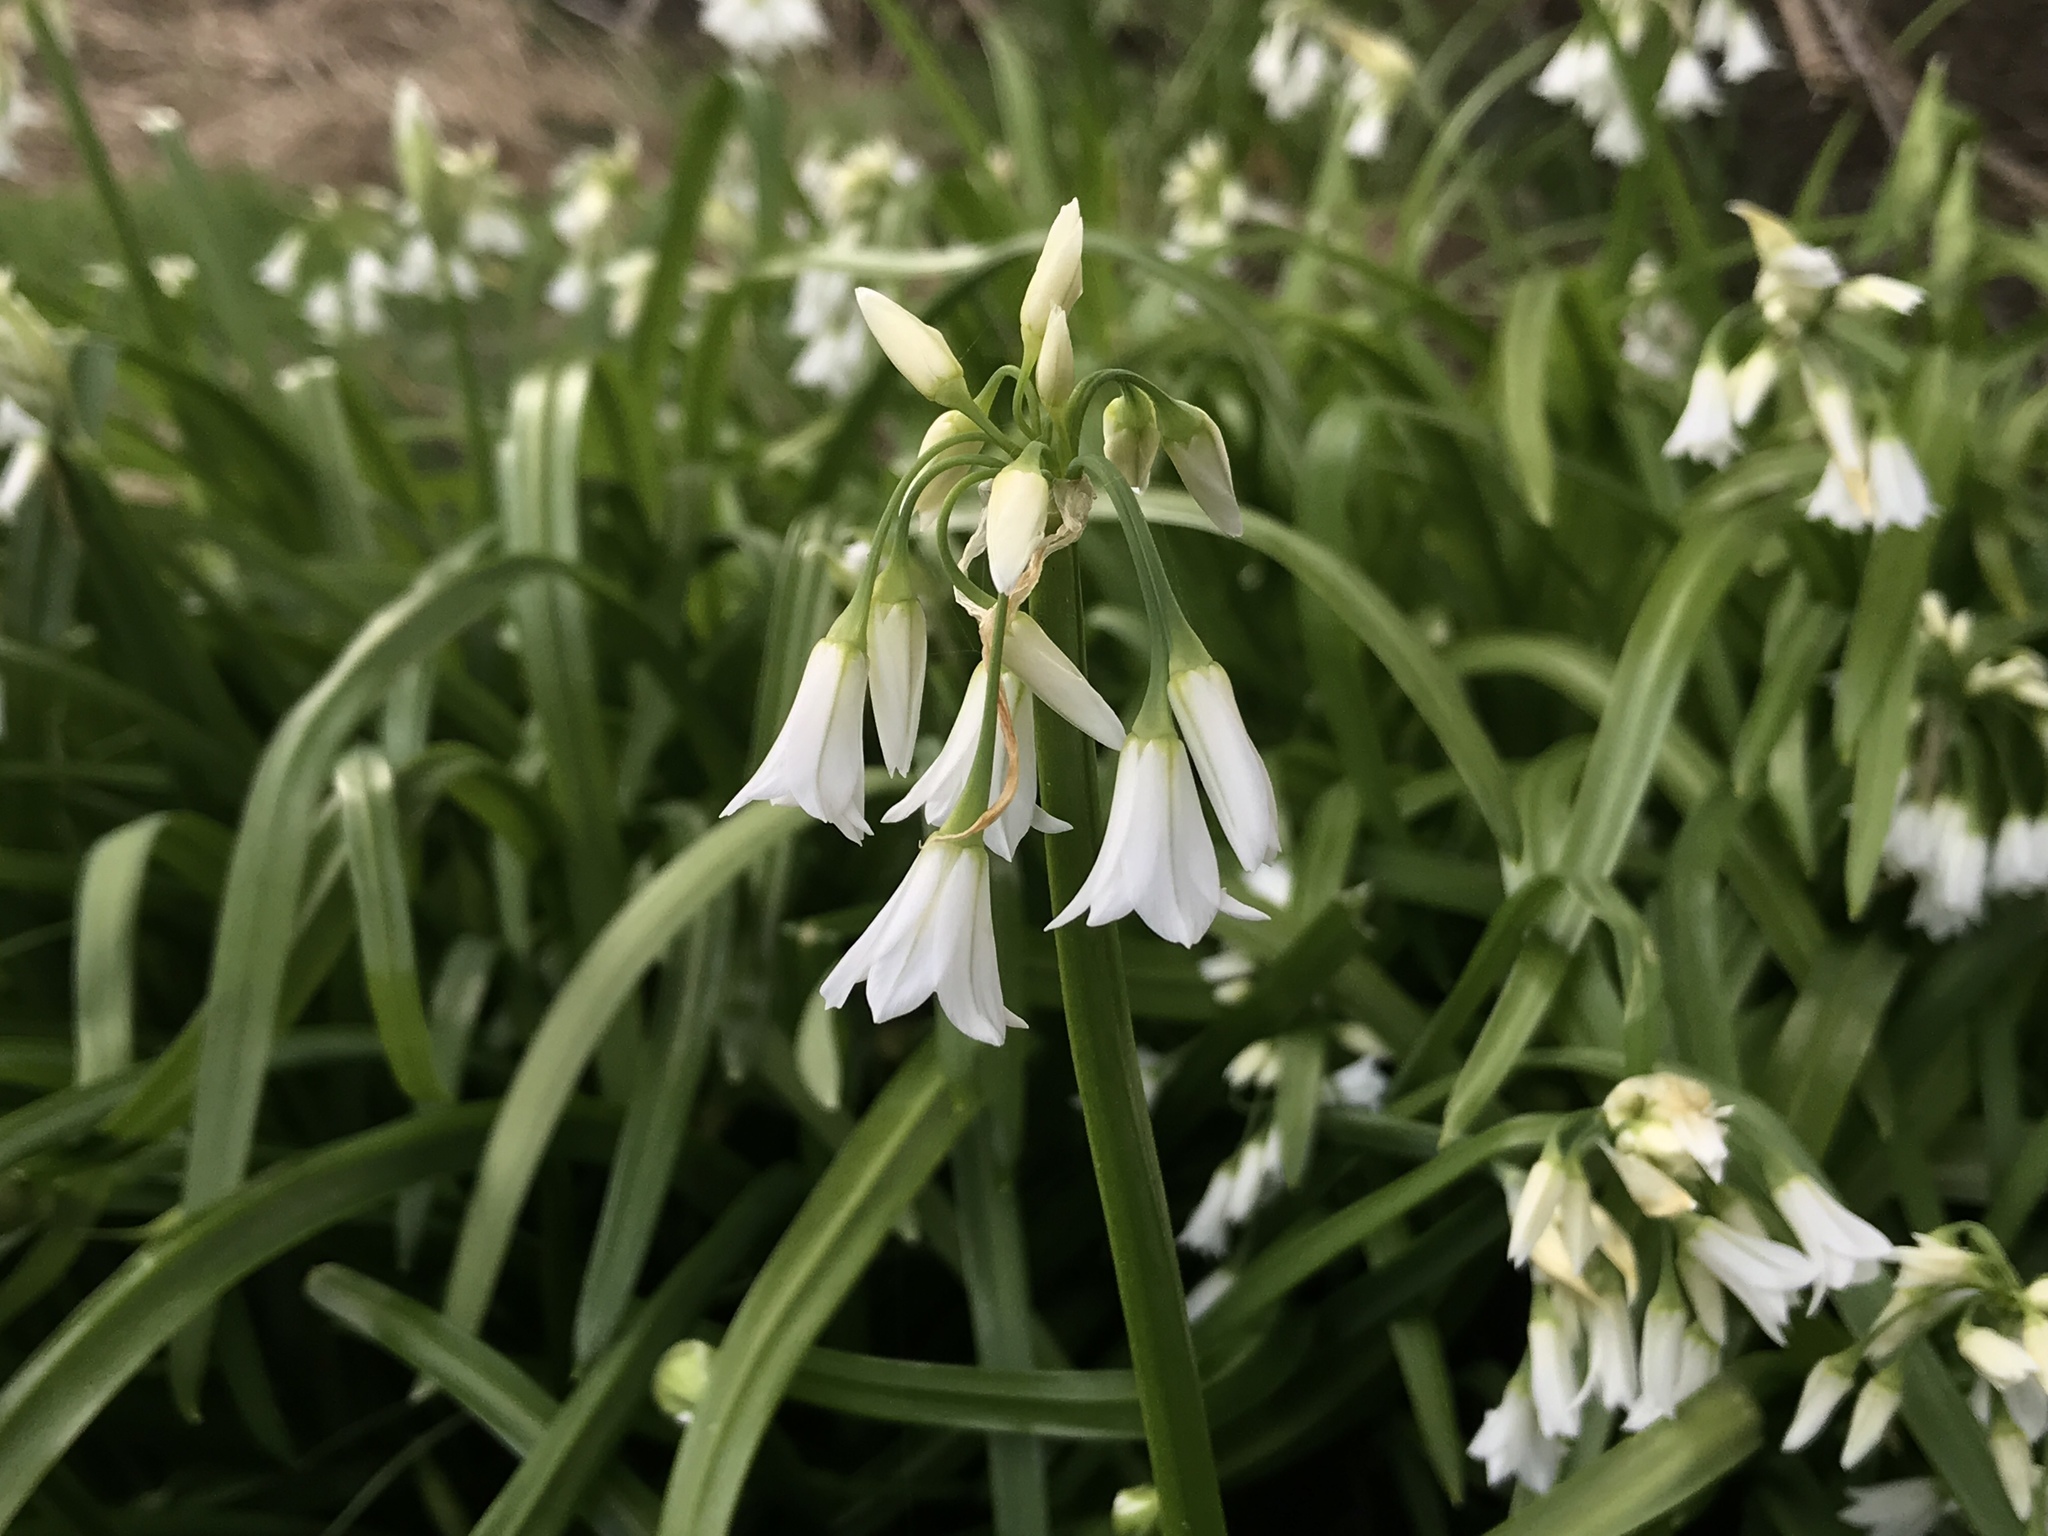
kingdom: Plantae
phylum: Tracheophyta
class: Liliopsida
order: Asparagales
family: Amaryllidaceae
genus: Allium
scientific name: Allium triquetrum
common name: Three-cornered garlic
